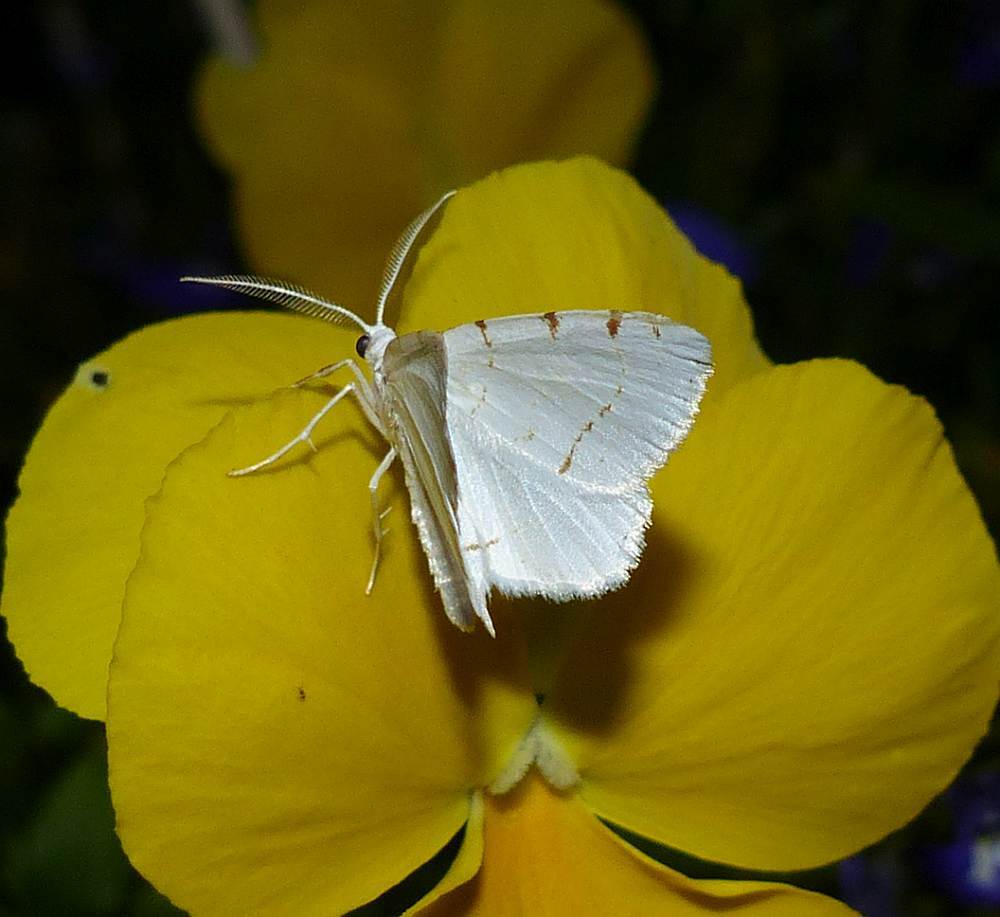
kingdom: Animalia
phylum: Arthropoda
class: Insecta
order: Lepidoptera
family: Geometridae
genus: Macaria
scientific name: Macaria pustularia
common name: Lesser maple spanworm moth
